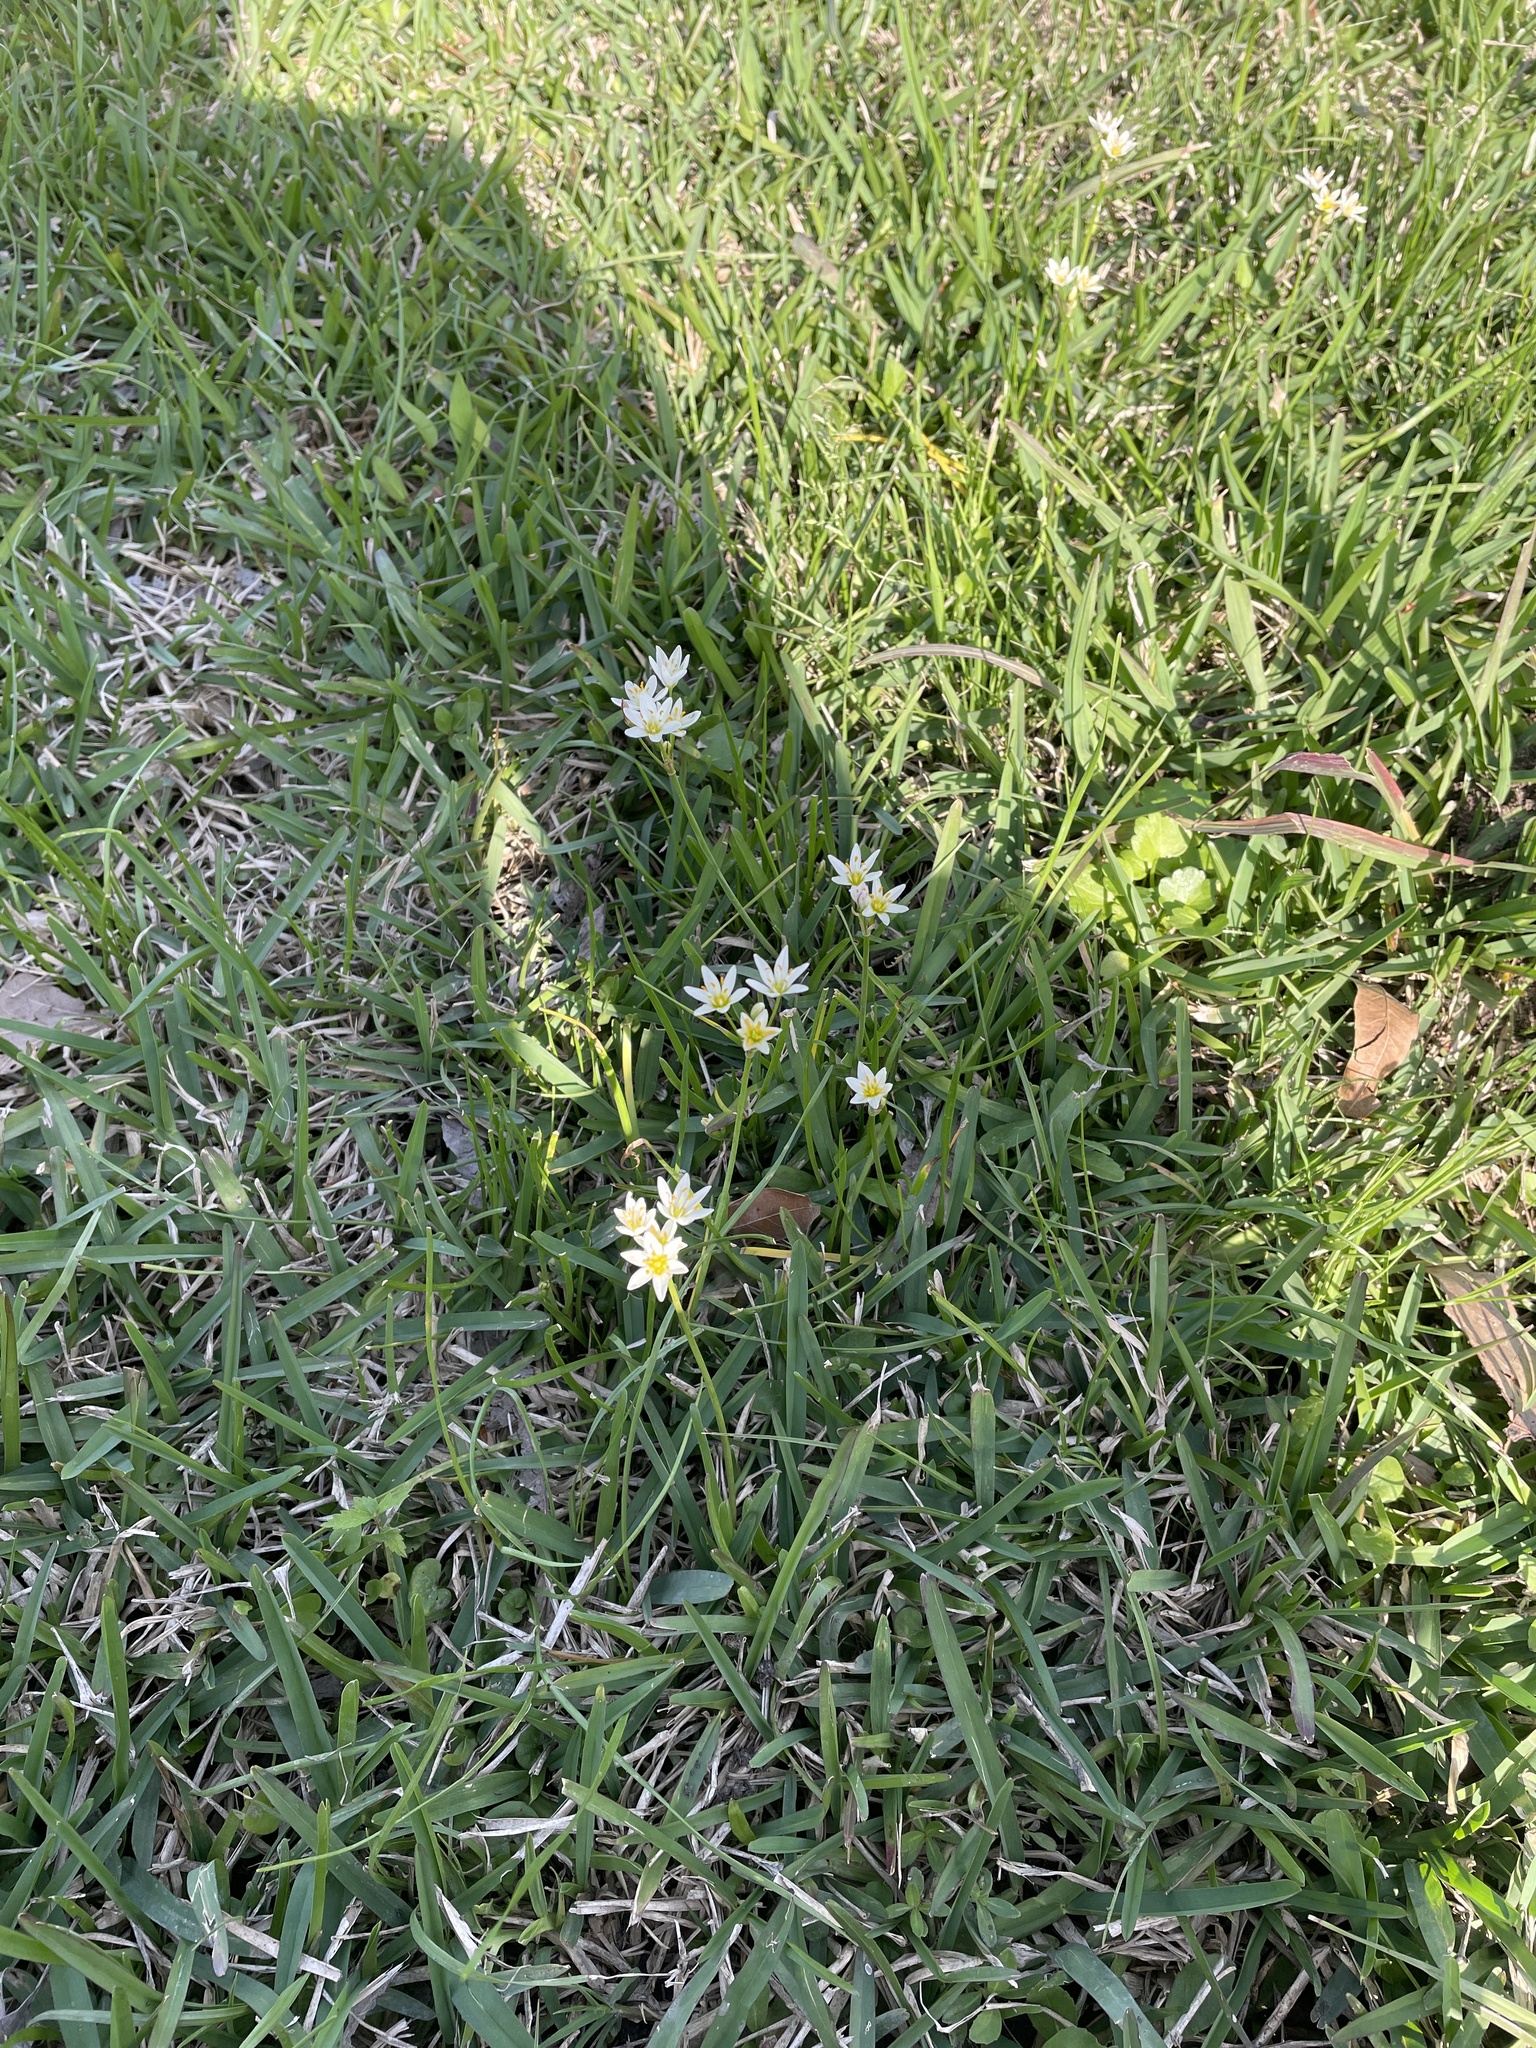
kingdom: Plantae
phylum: Tracheophyta
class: Liliopsida
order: Asparagales
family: Amaryllidaceae
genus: Nothoscordum
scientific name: Nothoscordum bivalve
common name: Crow-poison
